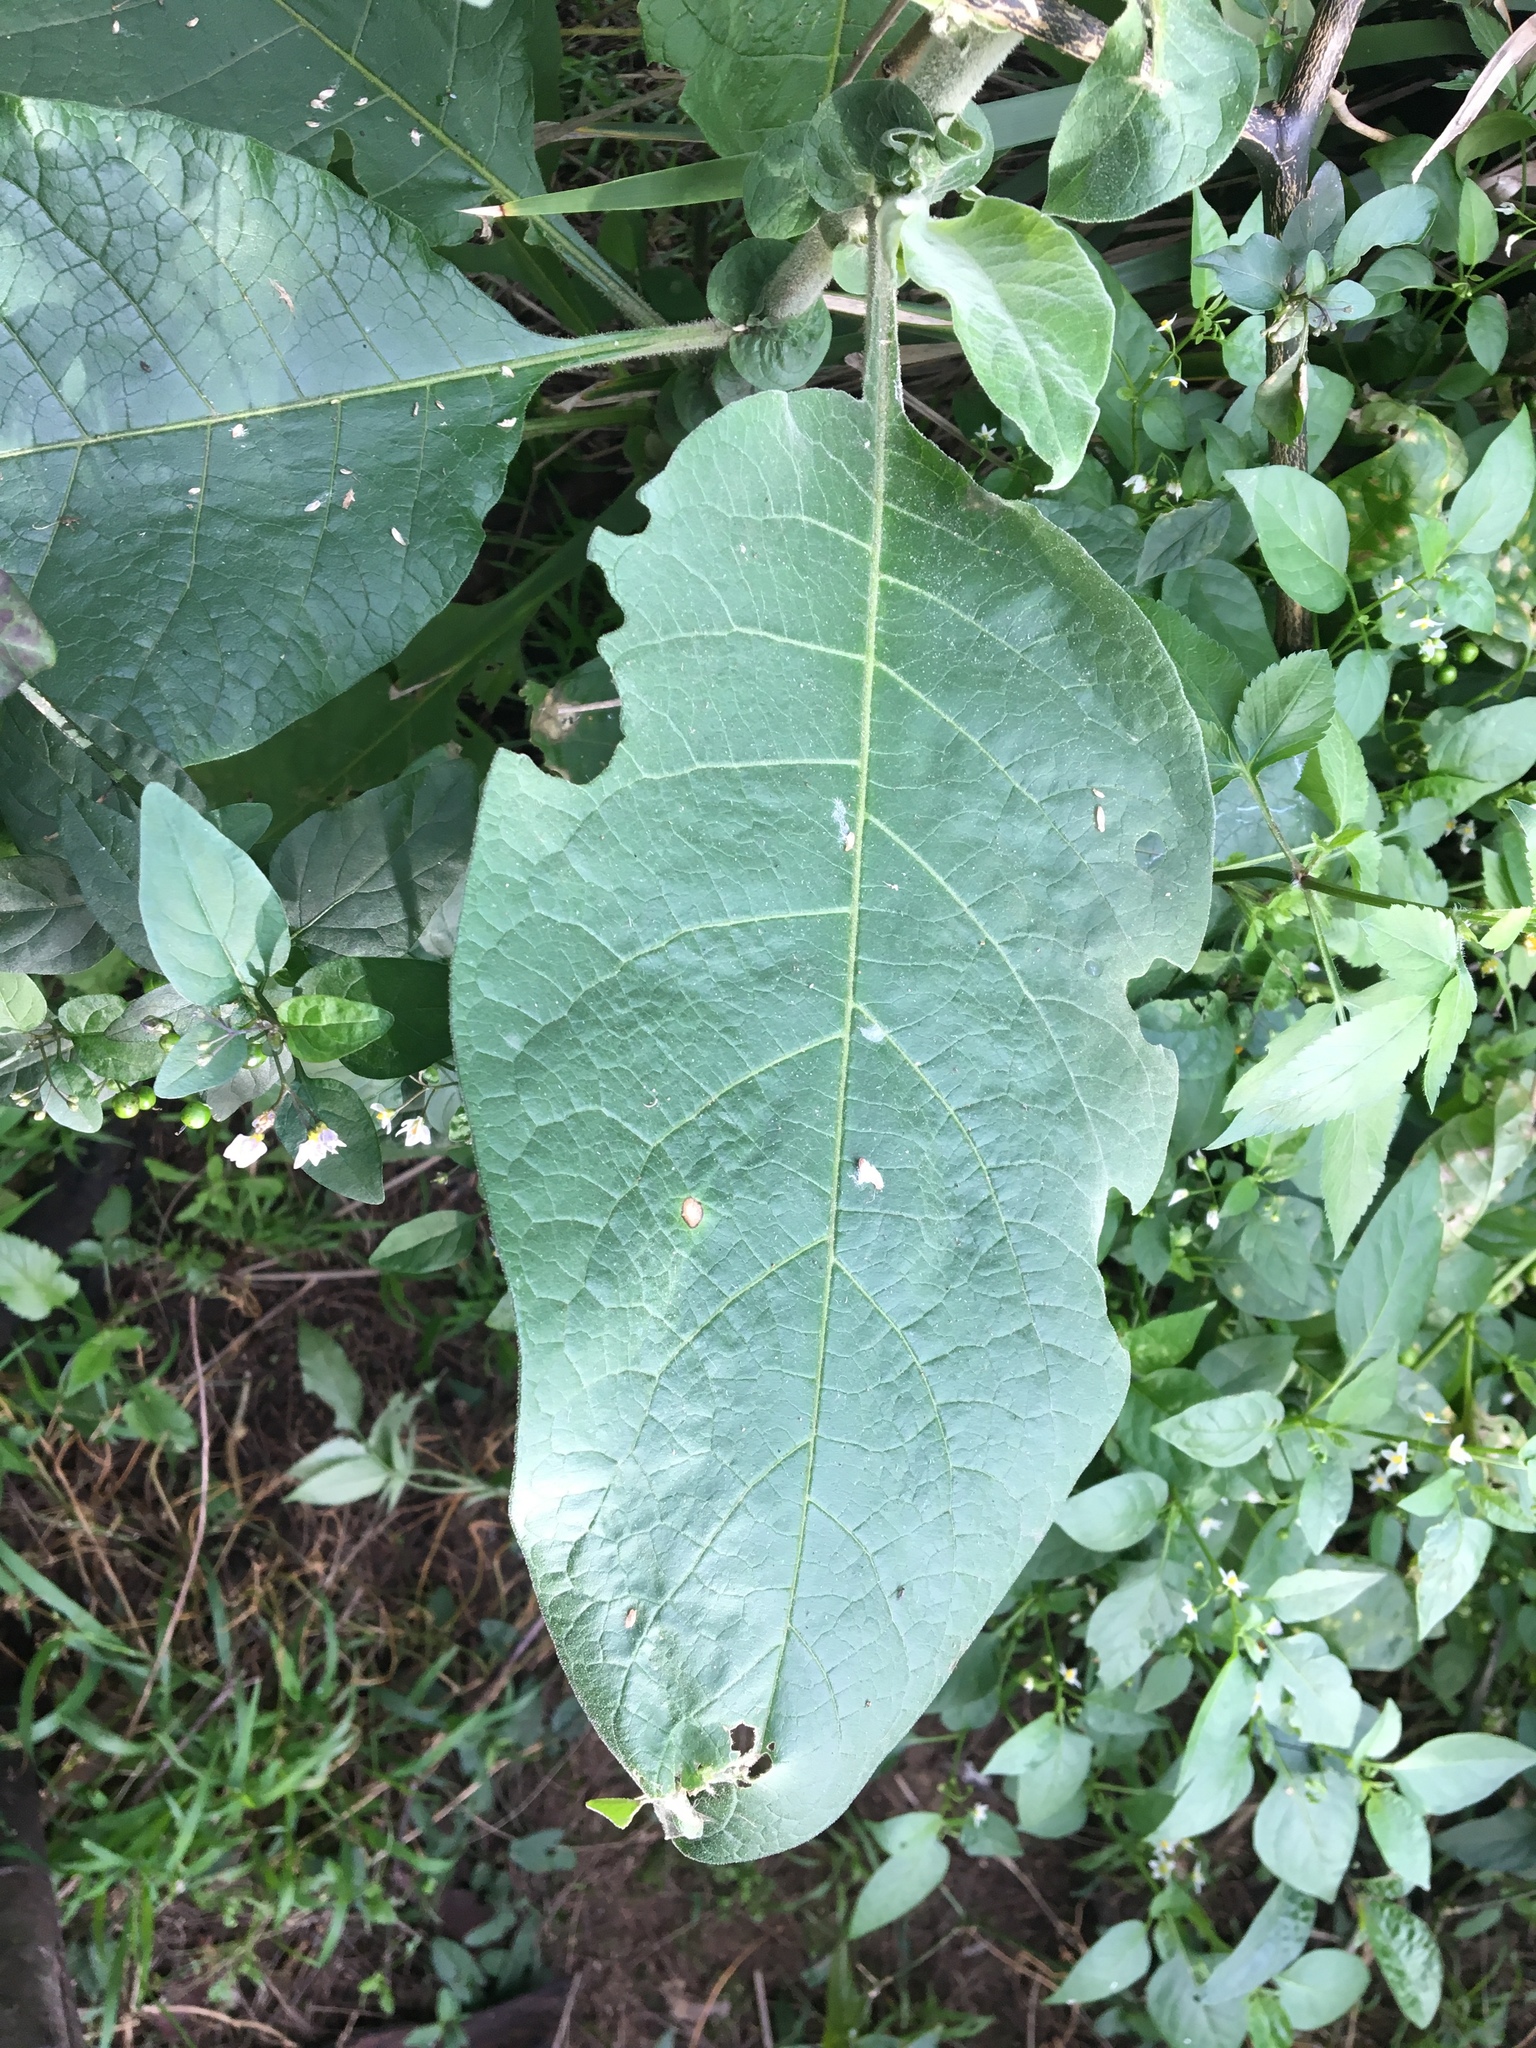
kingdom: Plantae
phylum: Tracheophyta
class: Magnoliopsida
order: Solanales
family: Solanaceae
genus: Solanum
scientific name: Solanum mauritianum
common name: Earleaf nightshade
